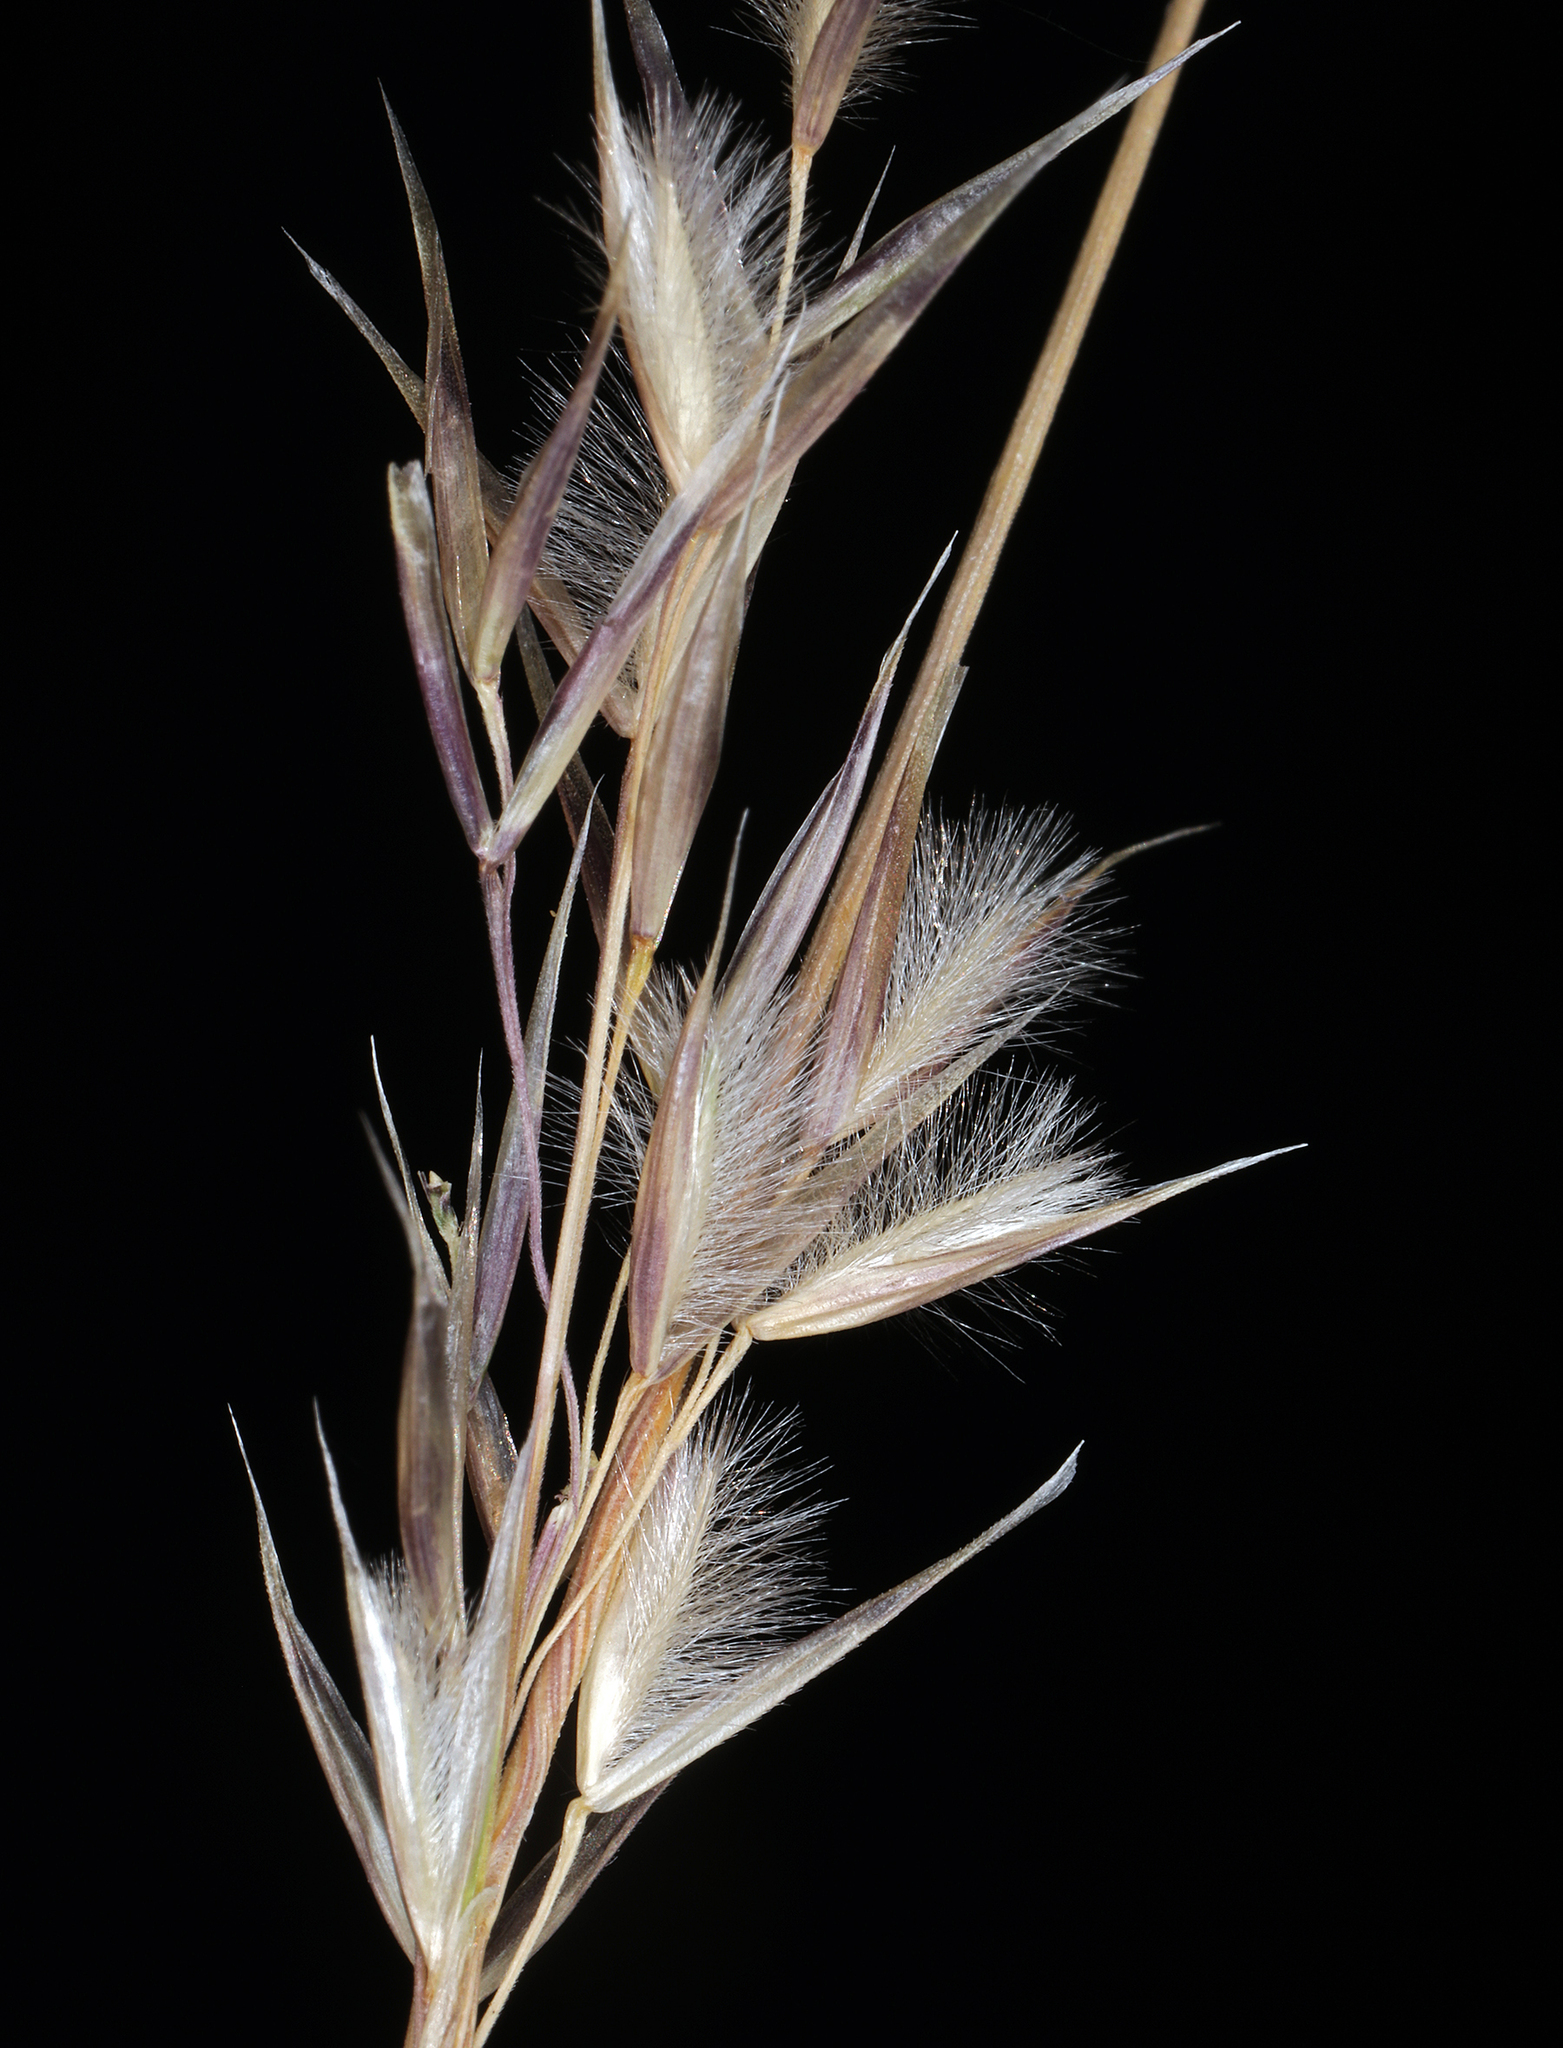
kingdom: Plantae
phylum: Tracheophyta
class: Liliopsida
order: Poales
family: Poaceae
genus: Eriocoma
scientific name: Eriocoma webberi
